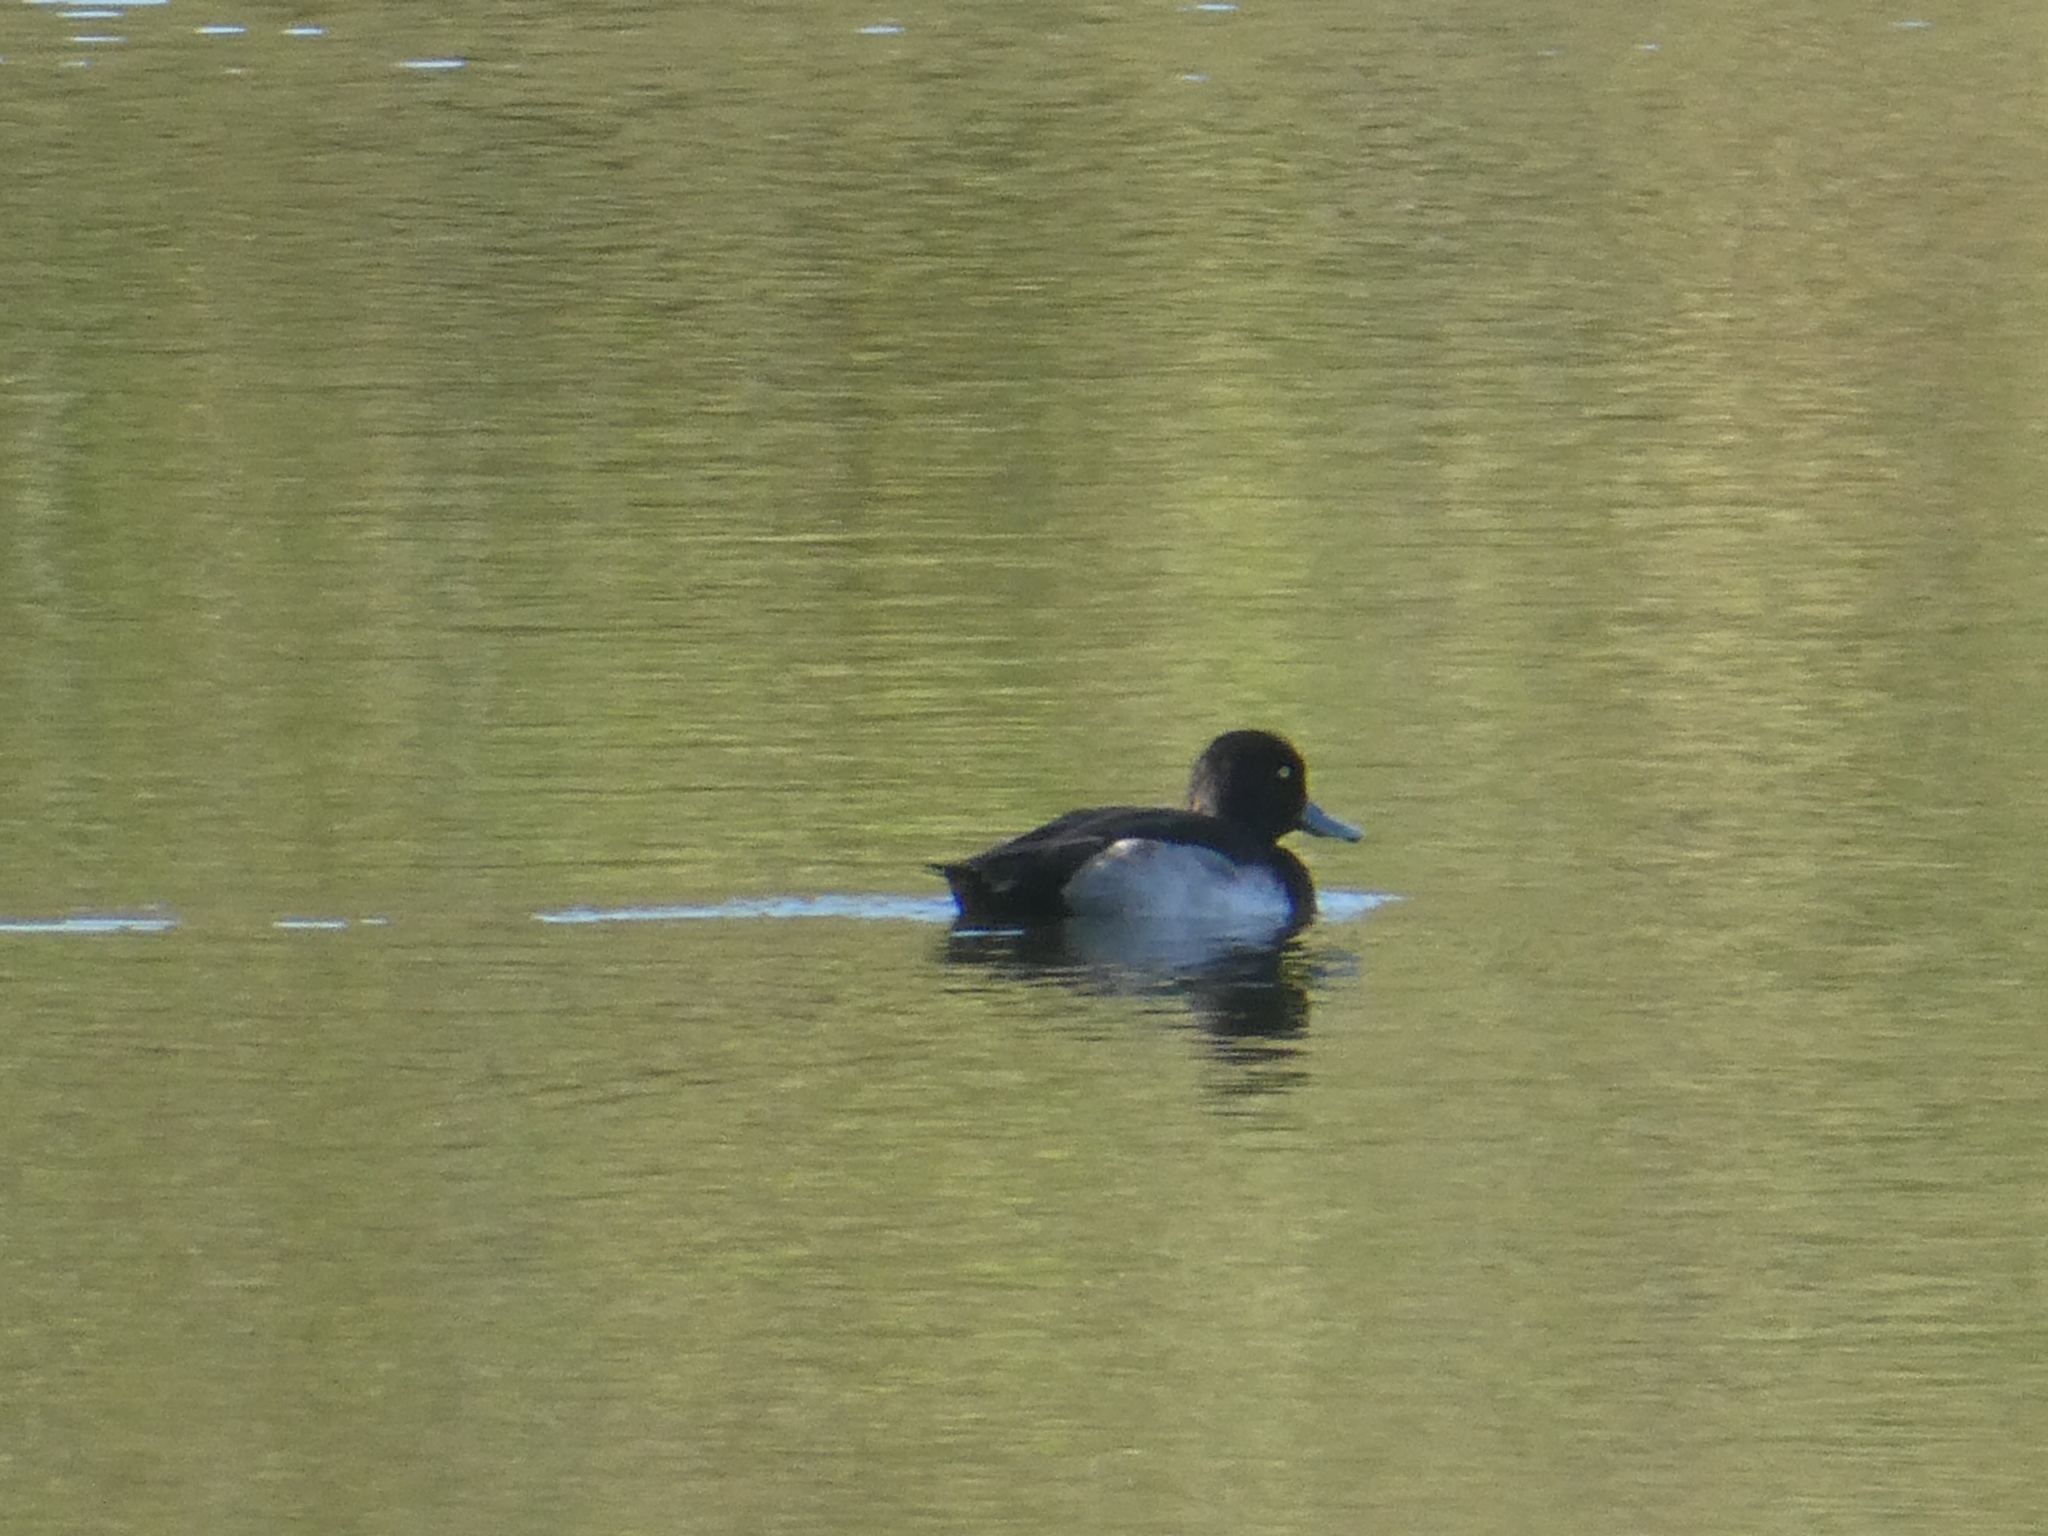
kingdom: Animalia
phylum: Chordata
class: Aves
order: Anseriformes
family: Anatidae
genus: Aythya
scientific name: Aythya fuligula
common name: Tufted duck
